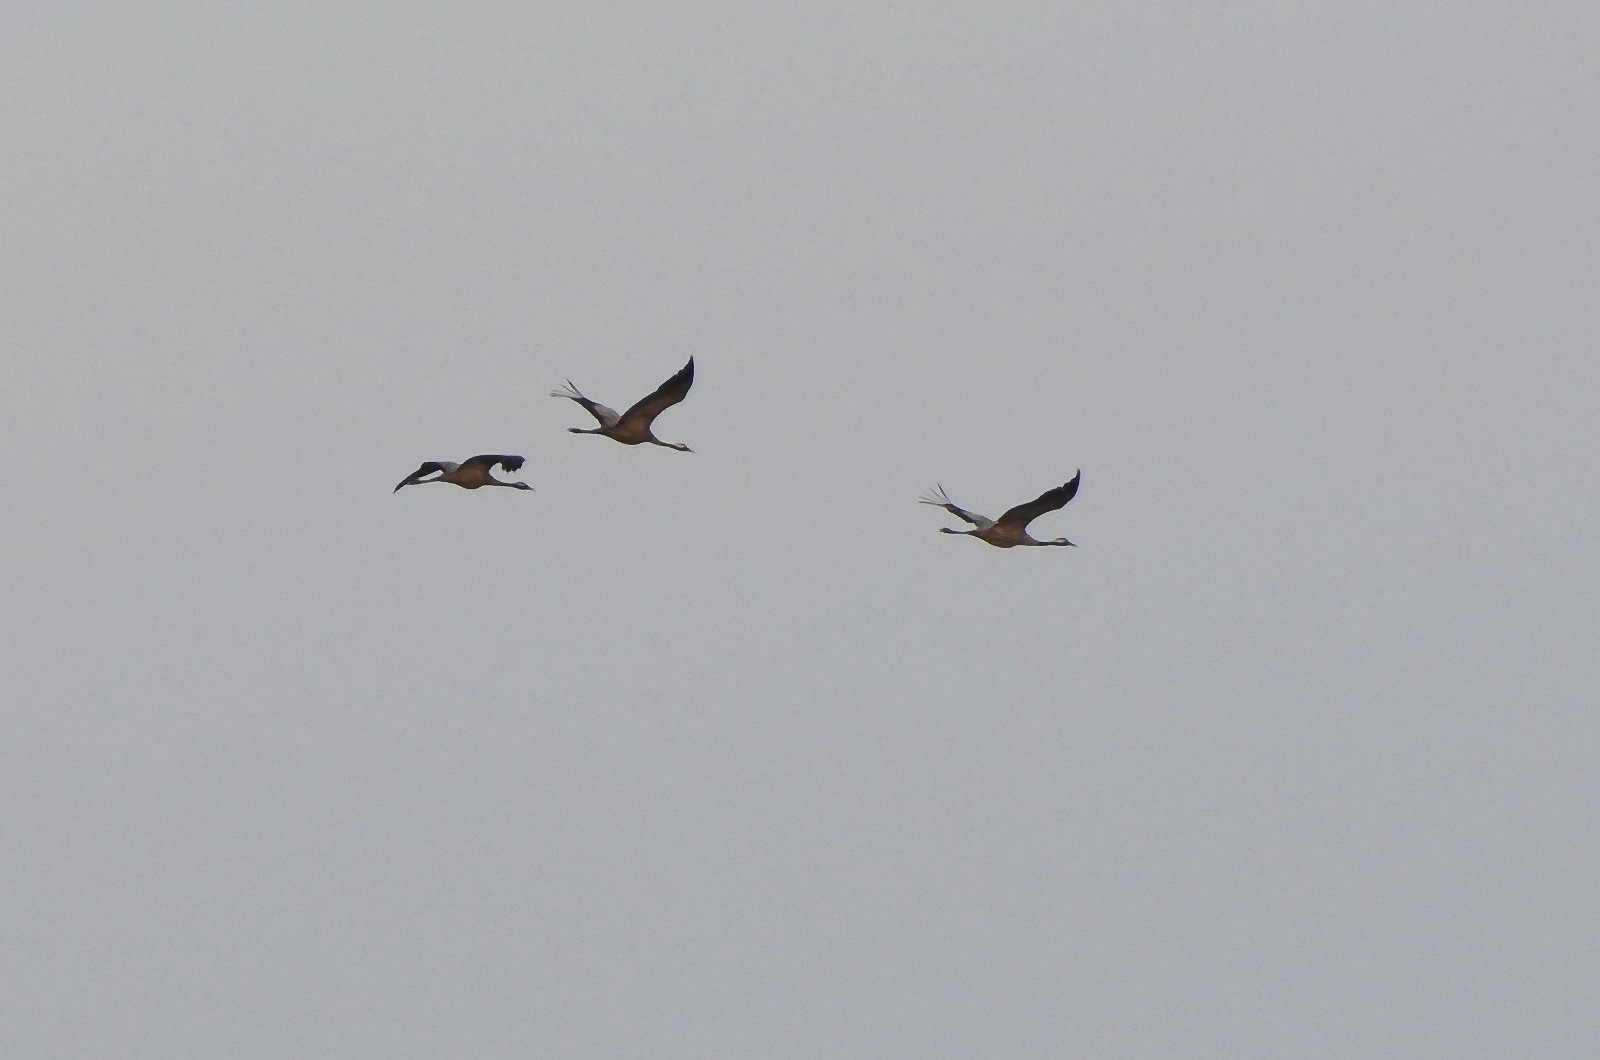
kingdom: Animalia
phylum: Chordata
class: Aves
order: Gruiformes
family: Gruidae
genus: Grus
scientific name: Grus grus
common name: Common crane
